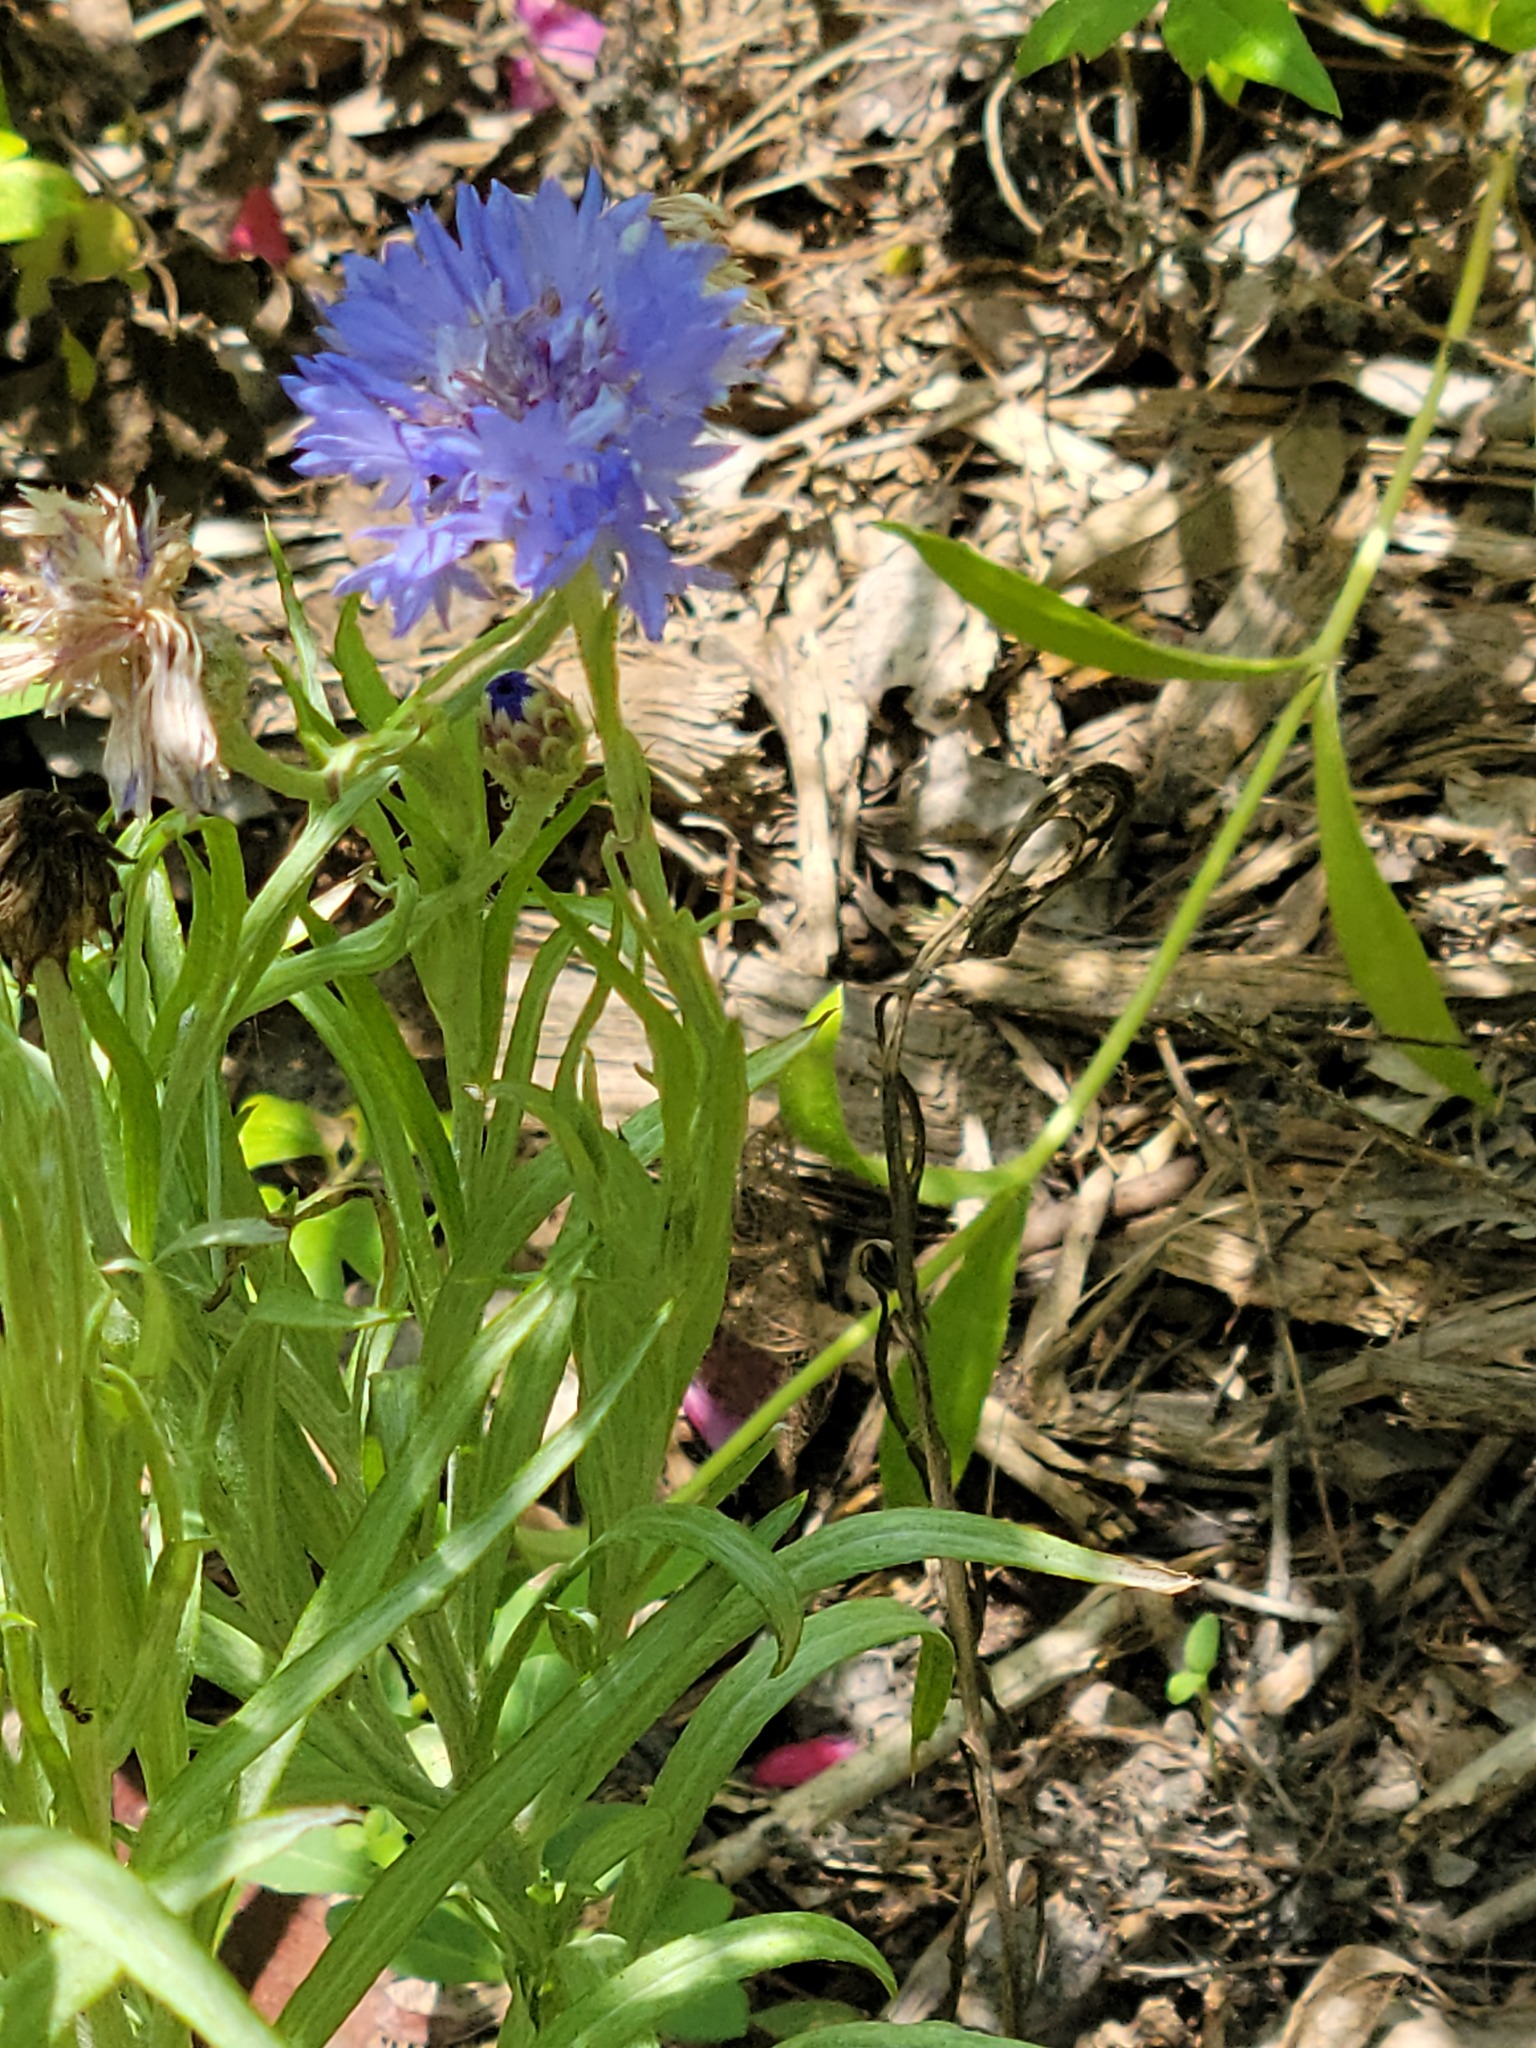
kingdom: Plantae
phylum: Tracheophyta
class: Magnoliopsida
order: Asterales
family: Asteraceae
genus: Centaurea
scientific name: Centaurea cyanus
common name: Cornflower
